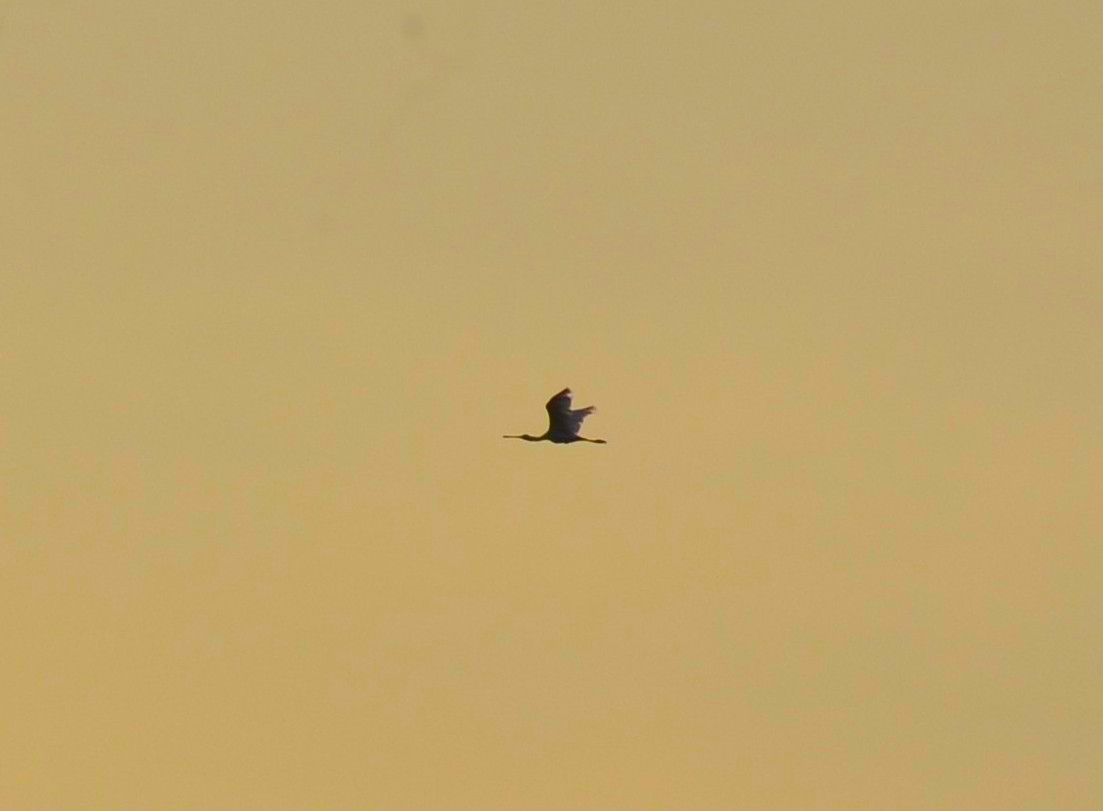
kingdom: Animalia
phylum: Chordata
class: Aves
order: Pelecaniformes
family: Threskiornithidae
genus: Platalea
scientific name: Platalea leucorodia
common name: Eurasian spoonbill
